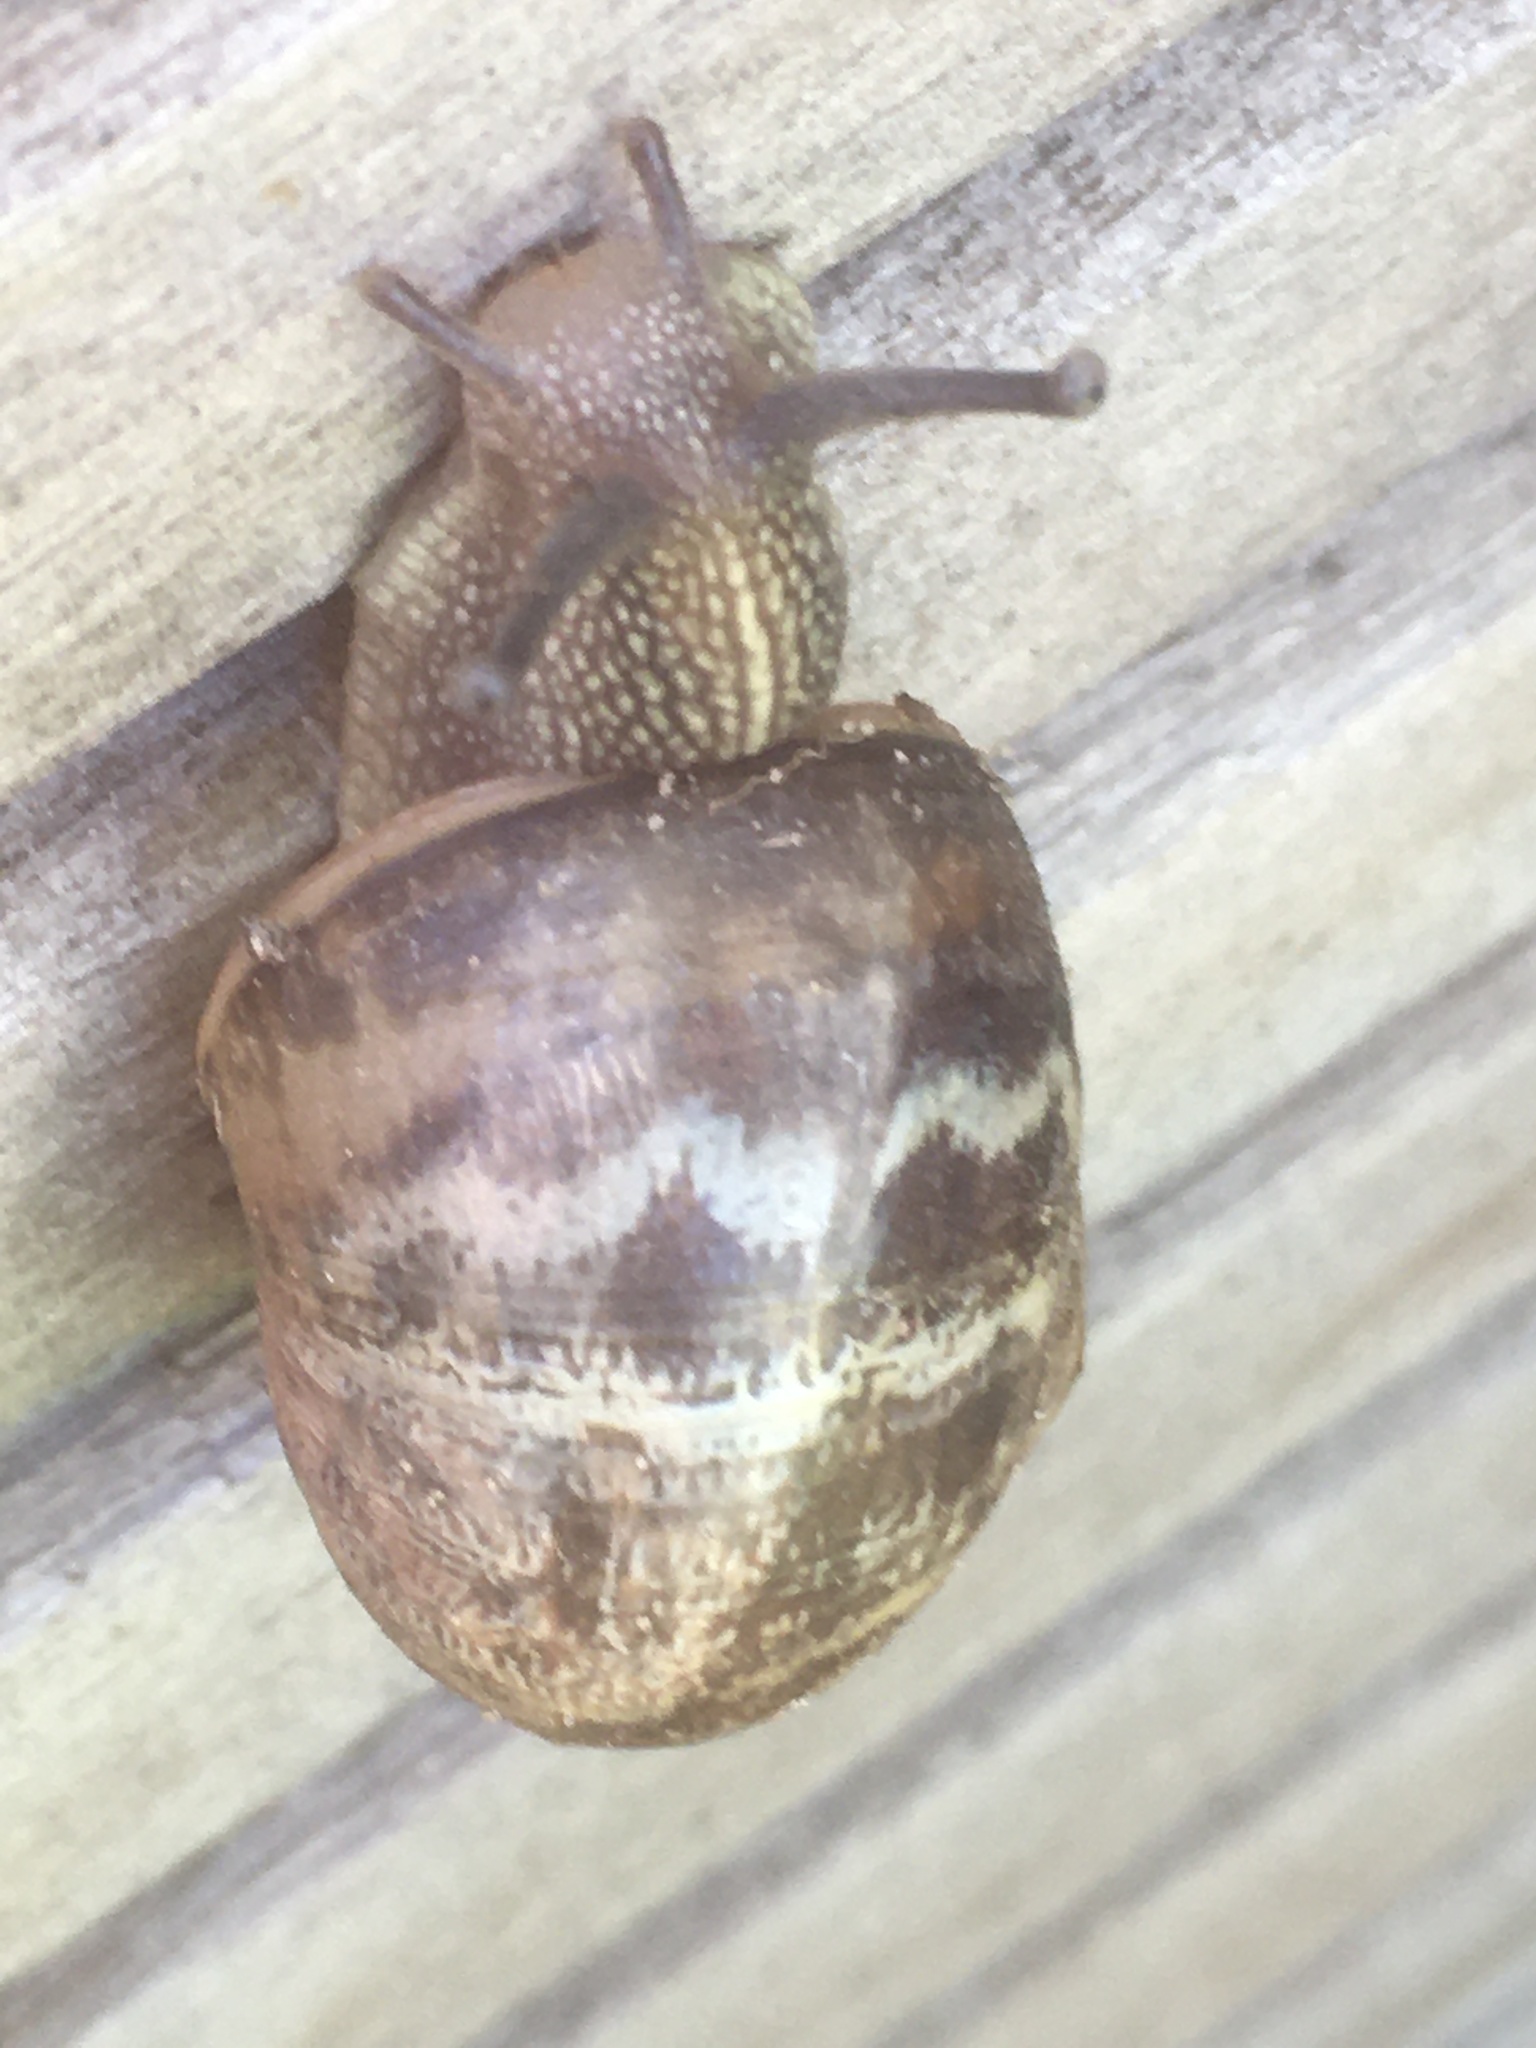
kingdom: Animalia
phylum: Mollusca
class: Gastropoda
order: Stylommatophora
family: Helicidae
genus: Cornu
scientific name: Cornu aspersum
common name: Brown garden snail
